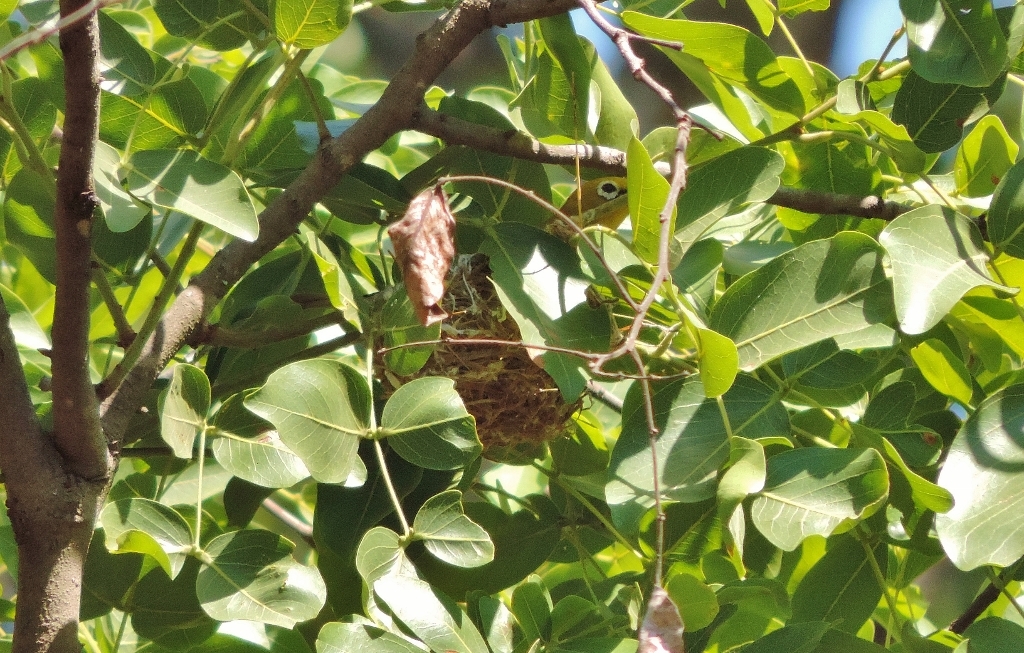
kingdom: Animalia
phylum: Chordata
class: Aves
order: Passeriformes
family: Zosteropidae
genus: Zosterops
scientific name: Zosterops anderssoni
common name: Southern yellow white-eye
